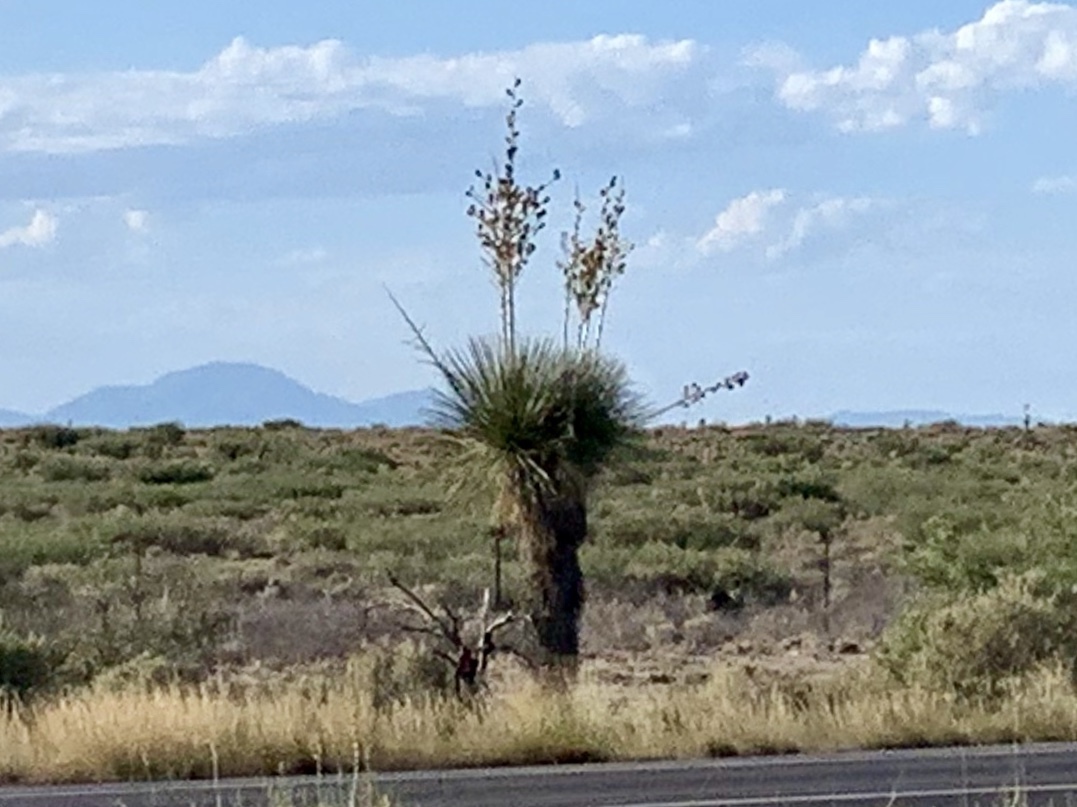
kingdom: Plantae
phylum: Tracheophyta
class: Liliopsida
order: Asparagales
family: Asparagaceae
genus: Yucca
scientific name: Yucca elata
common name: Palmella
